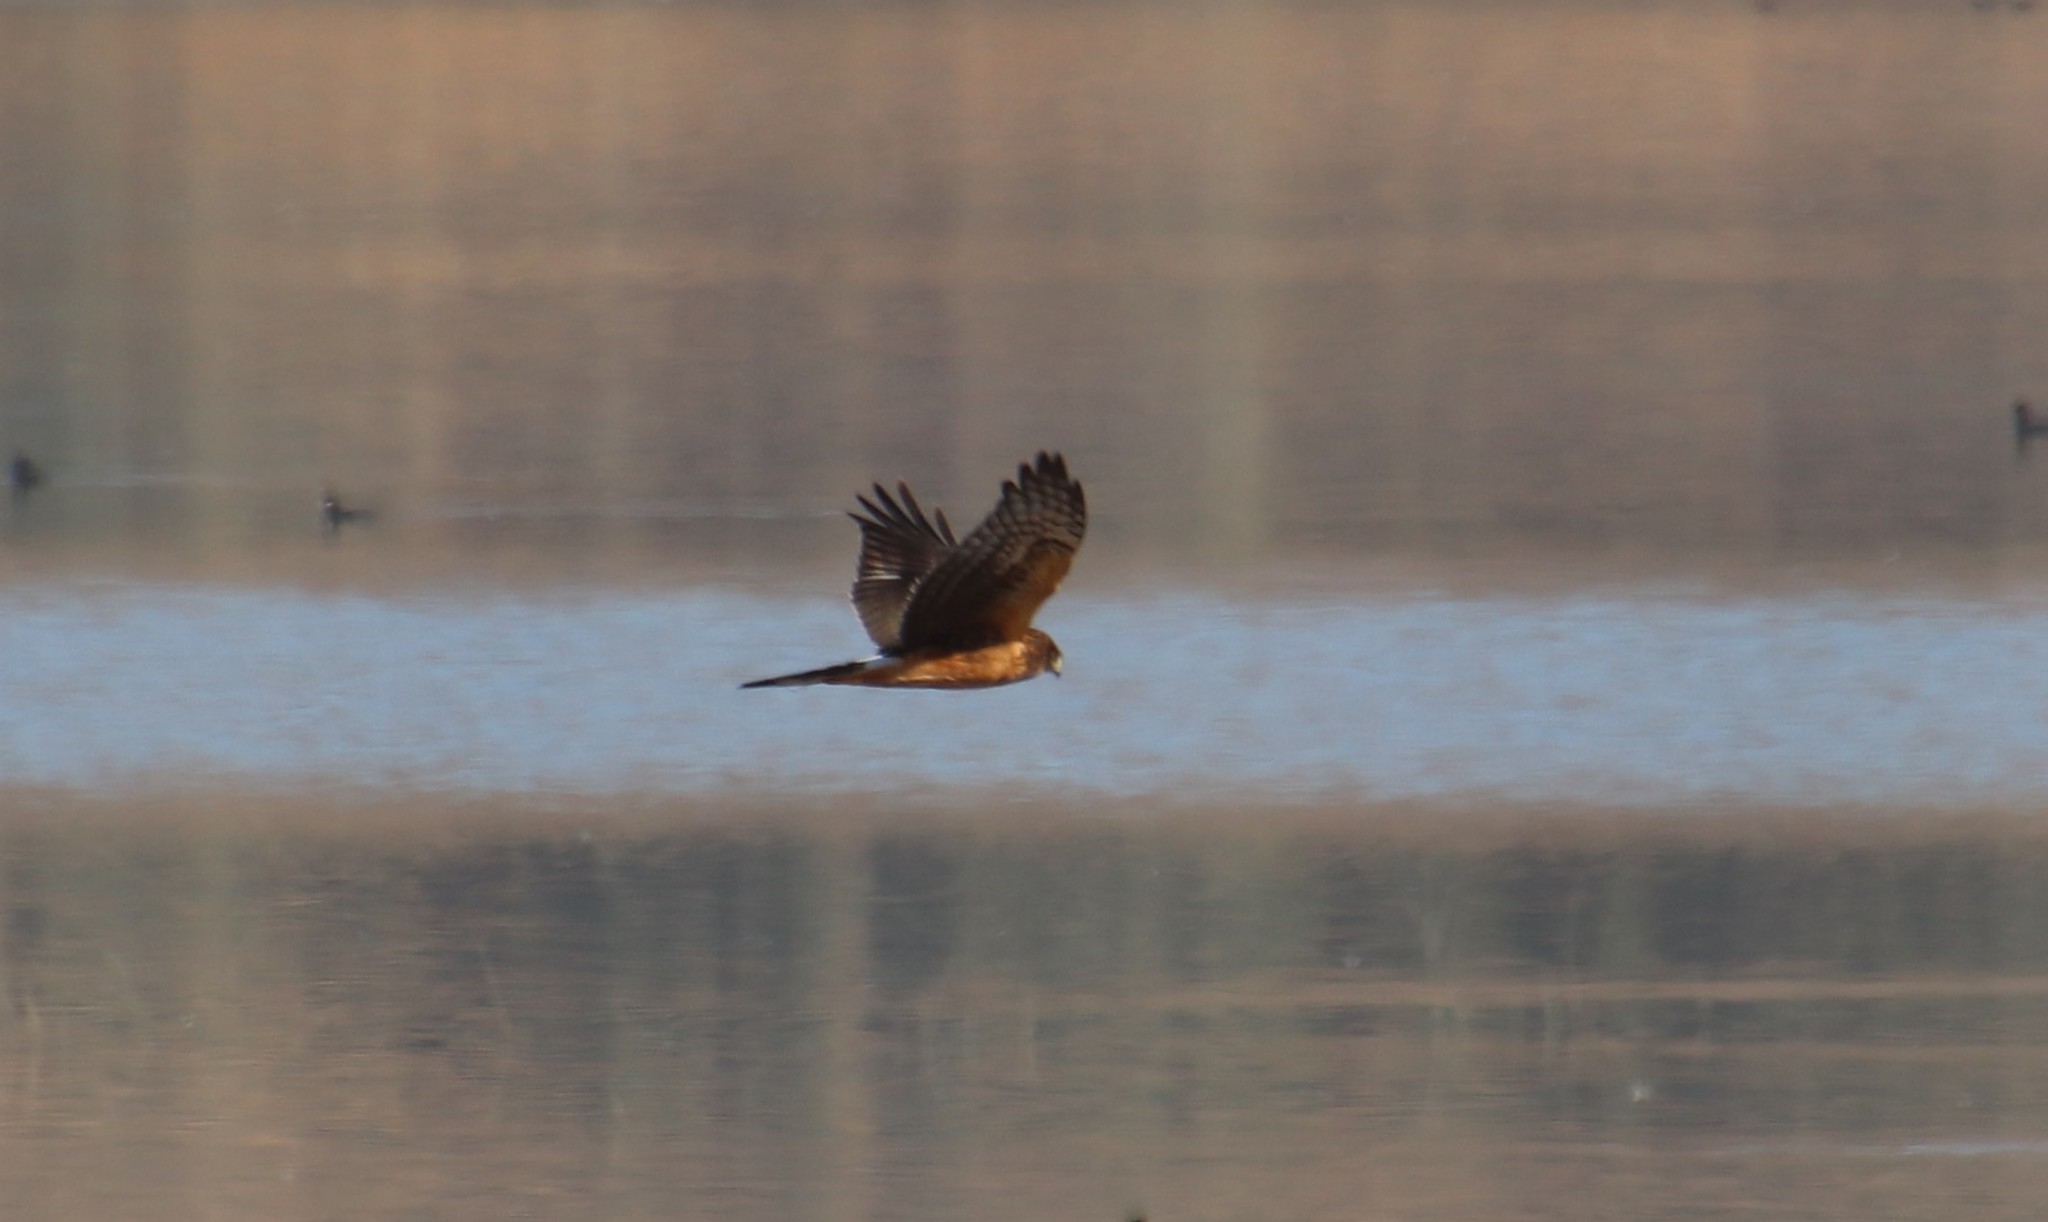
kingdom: Animalia
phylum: Chordata
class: Aves
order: Accipitriformes
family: Accipitridae
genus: Circus
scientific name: Circus cyaneus
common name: Hen harrier
